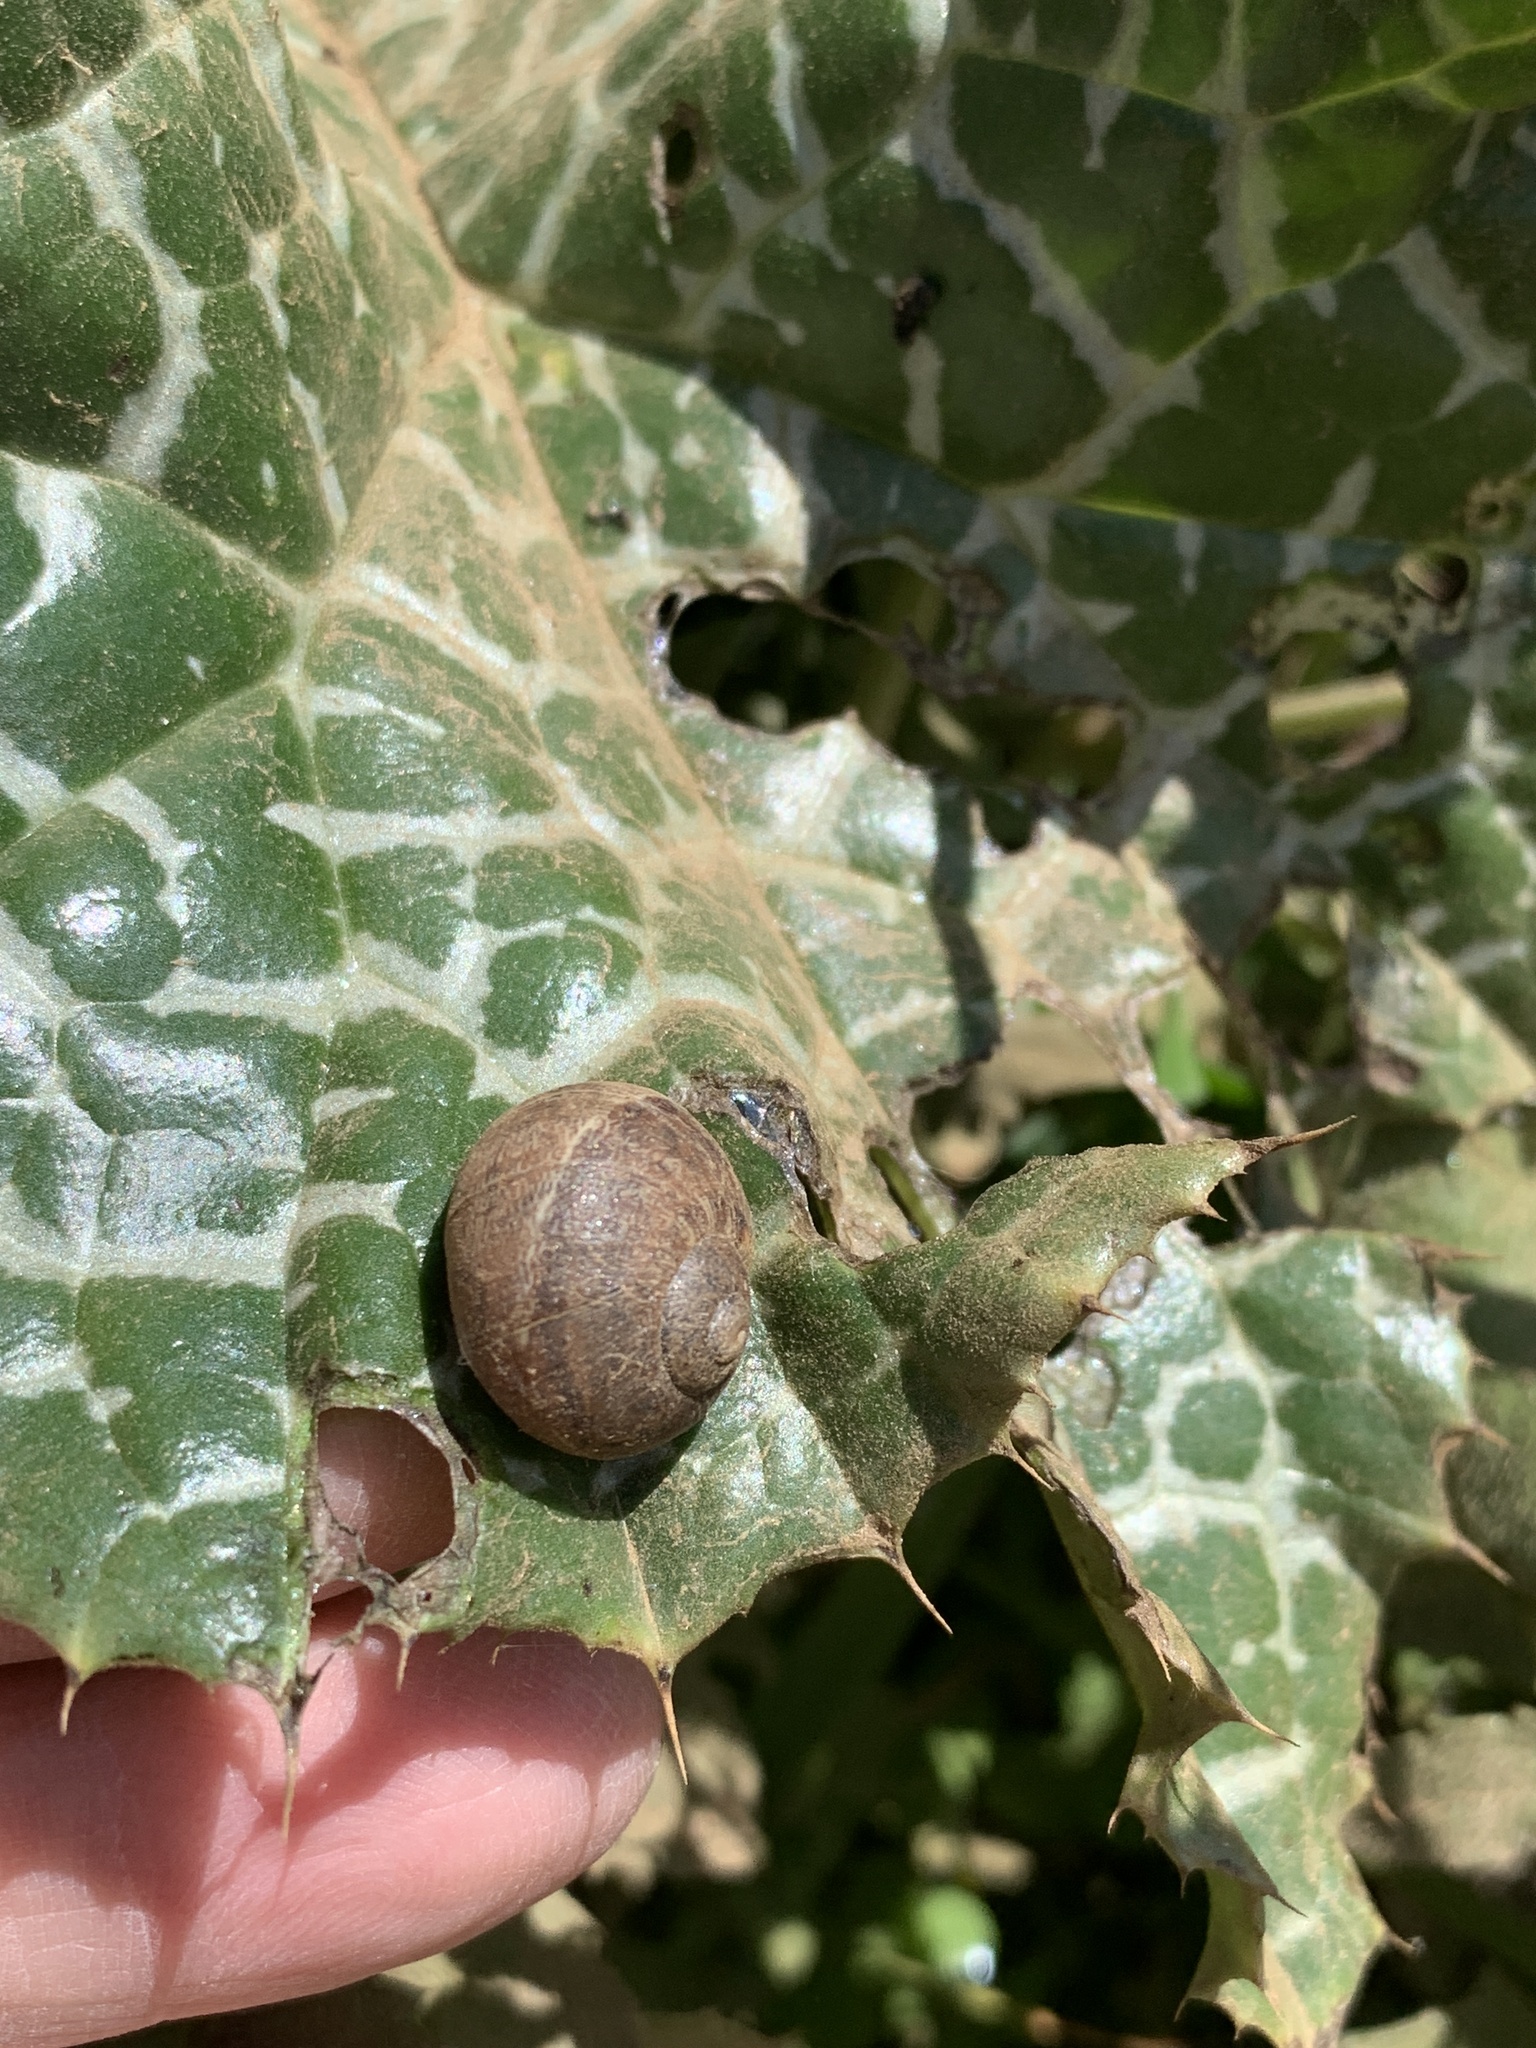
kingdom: Animalia
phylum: Mollusca
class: Gastropoda
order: Stylommatophora
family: Helicidae
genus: Cornu
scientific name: Cornu aspersum
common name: Brown garden snail
